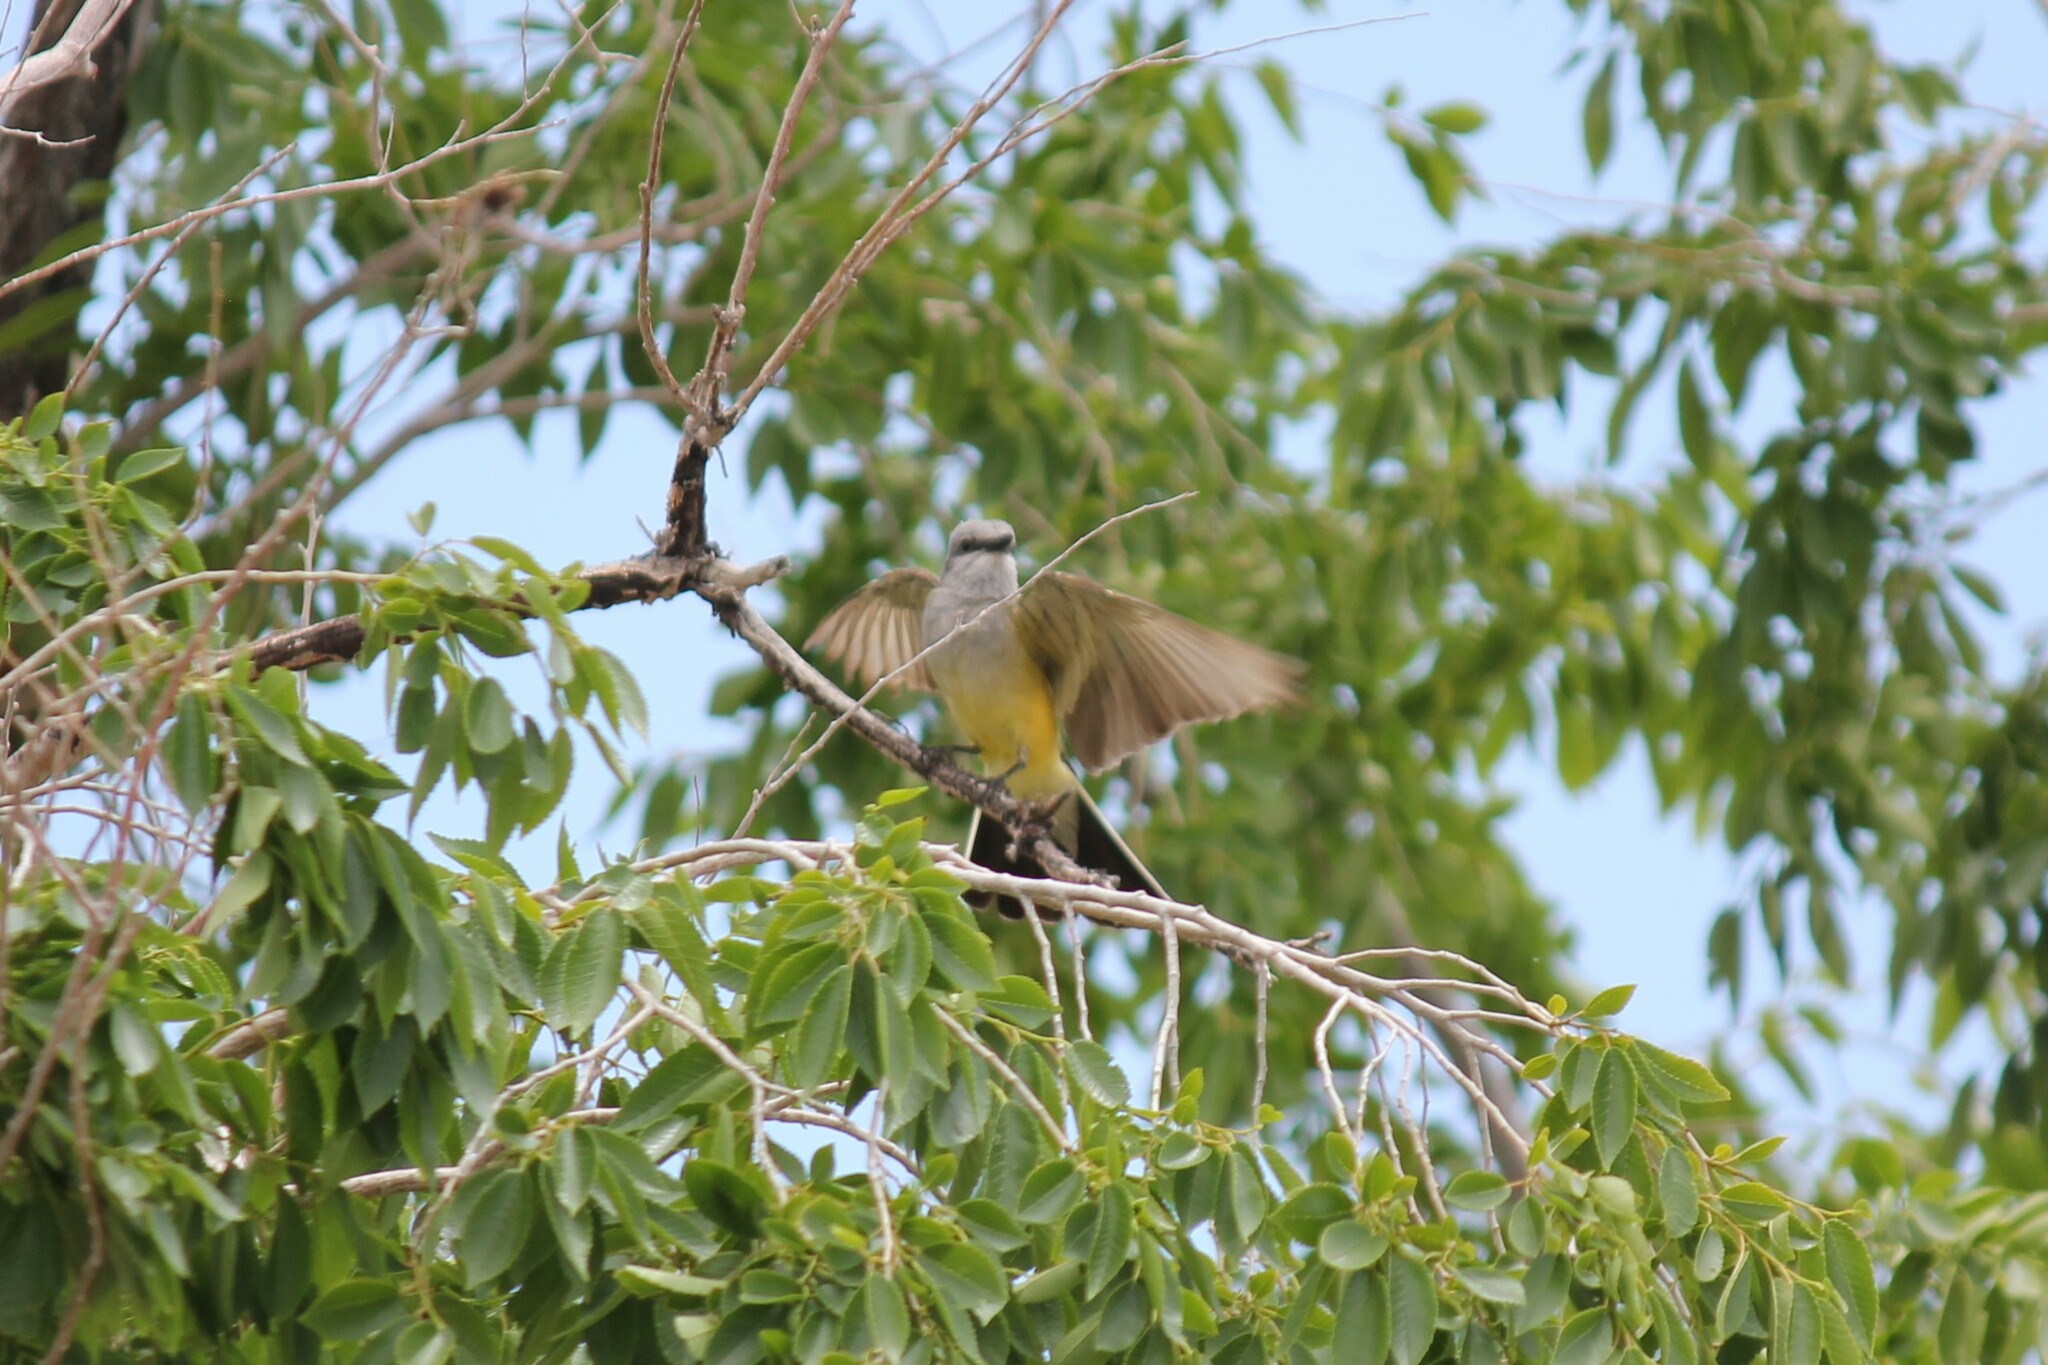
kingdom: Animalia
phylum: Chordata
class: Aves
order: Passeriformes
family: Tyrannidae
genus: Tyrannus
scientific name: Tyrannus verticalis
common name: Western kingbird
